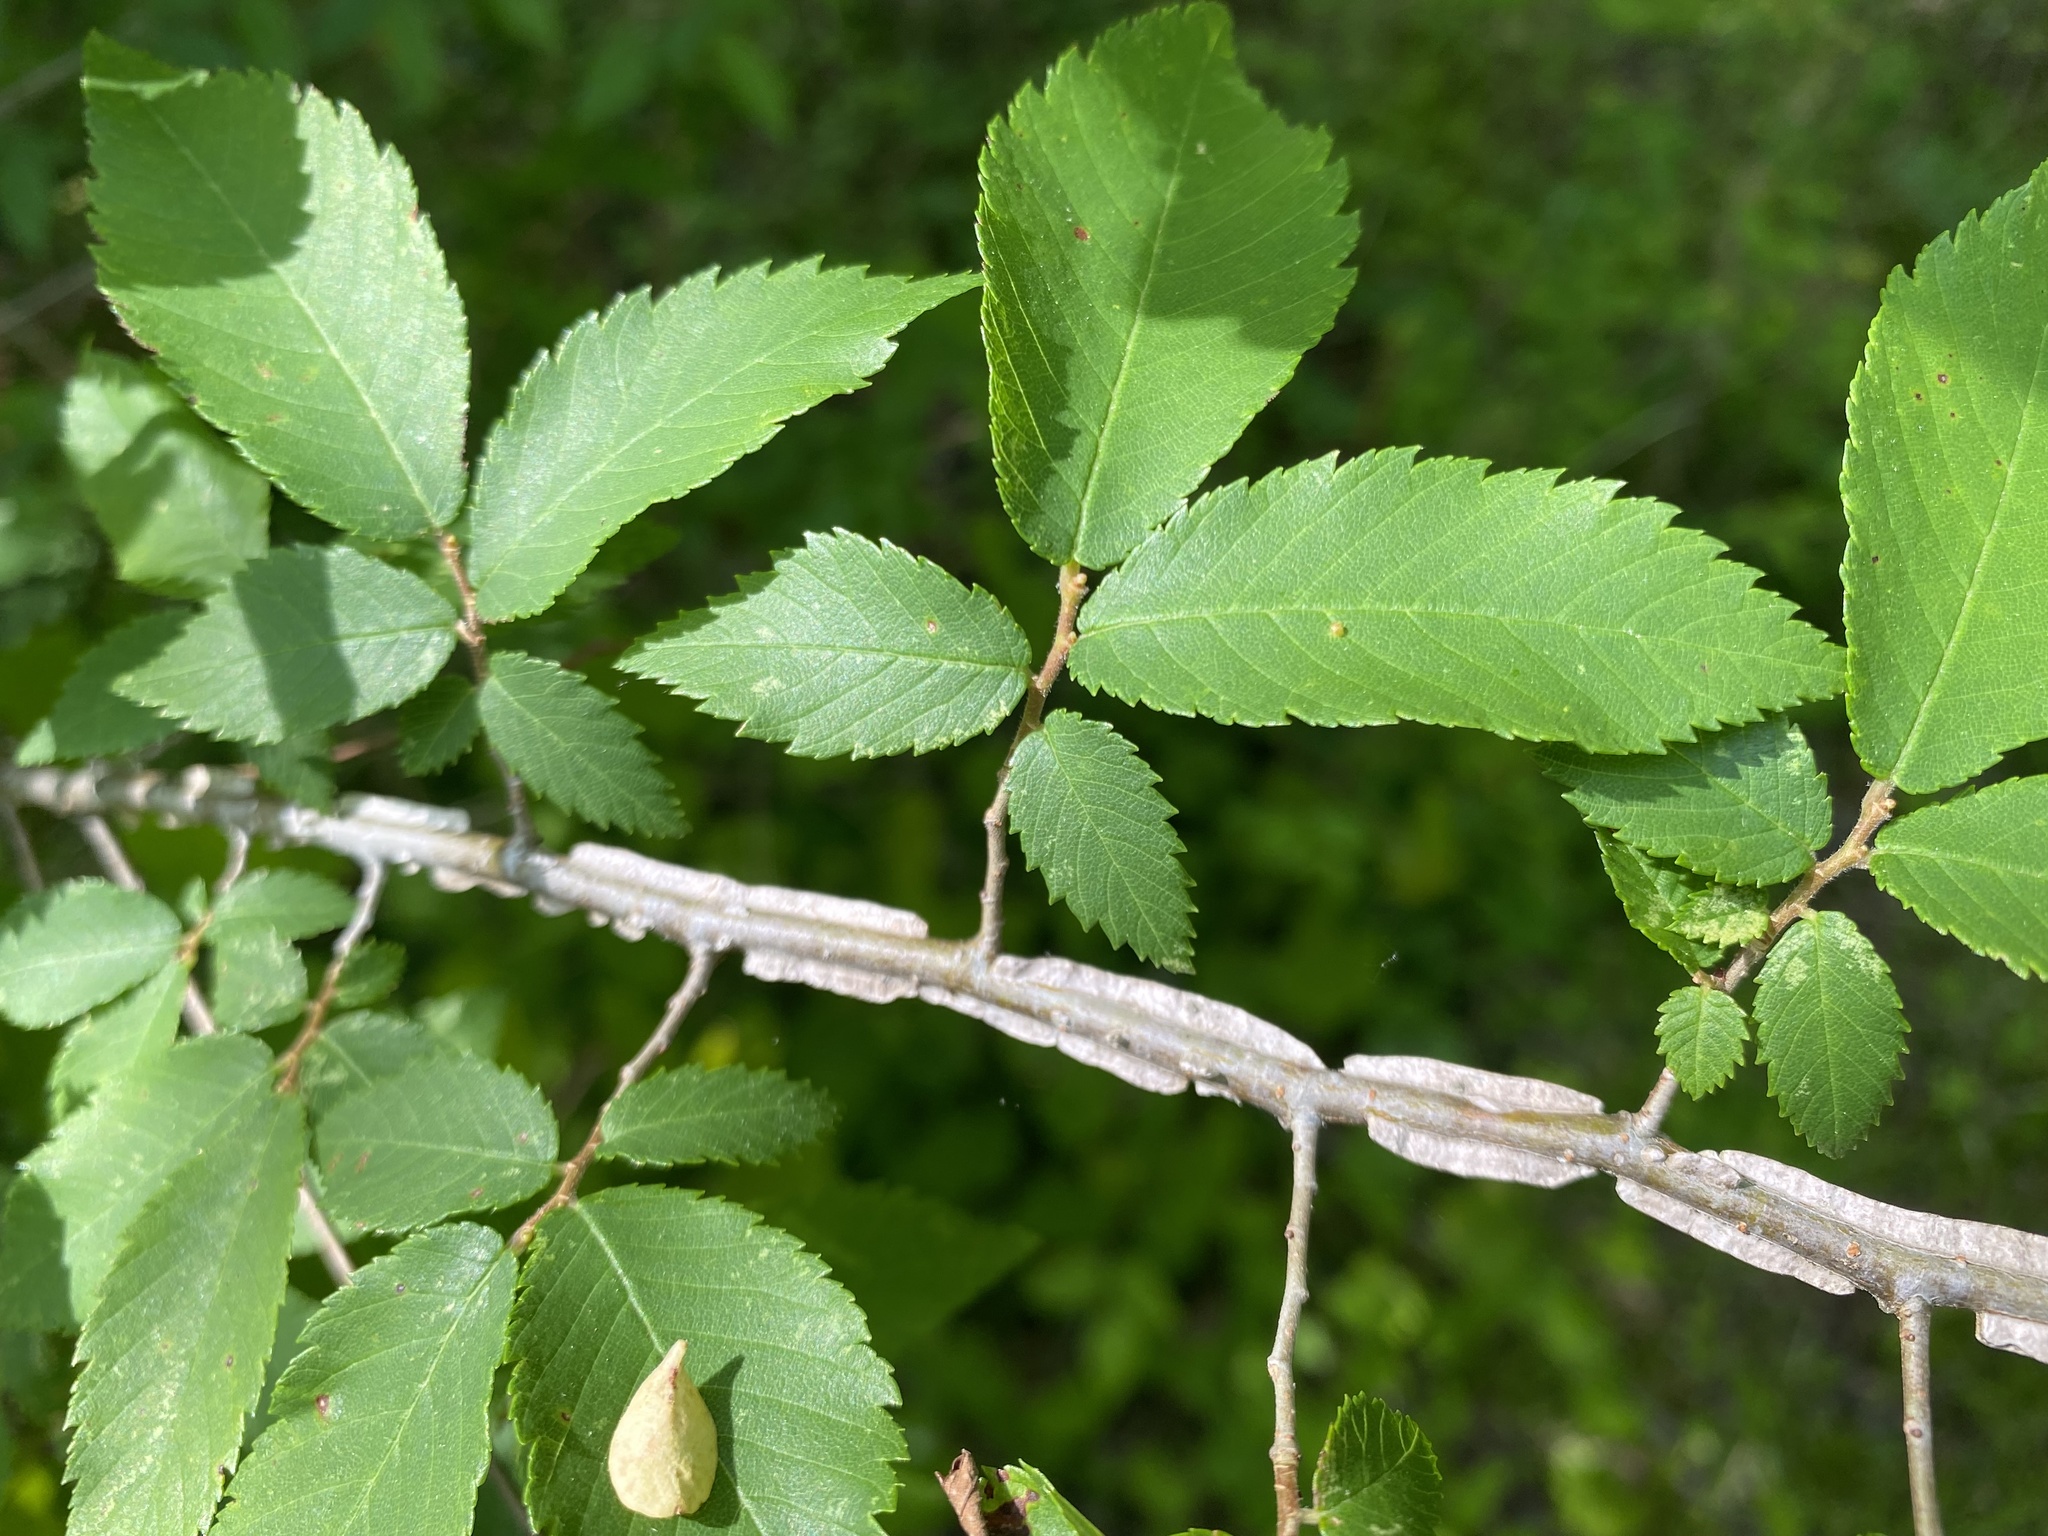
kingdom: Plantae
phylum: Tracheophyta
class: Magnoliopsida
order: Rosales
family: Ulmaceae
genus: Ulmus
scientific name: Ulmus alata
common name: Winged elm
